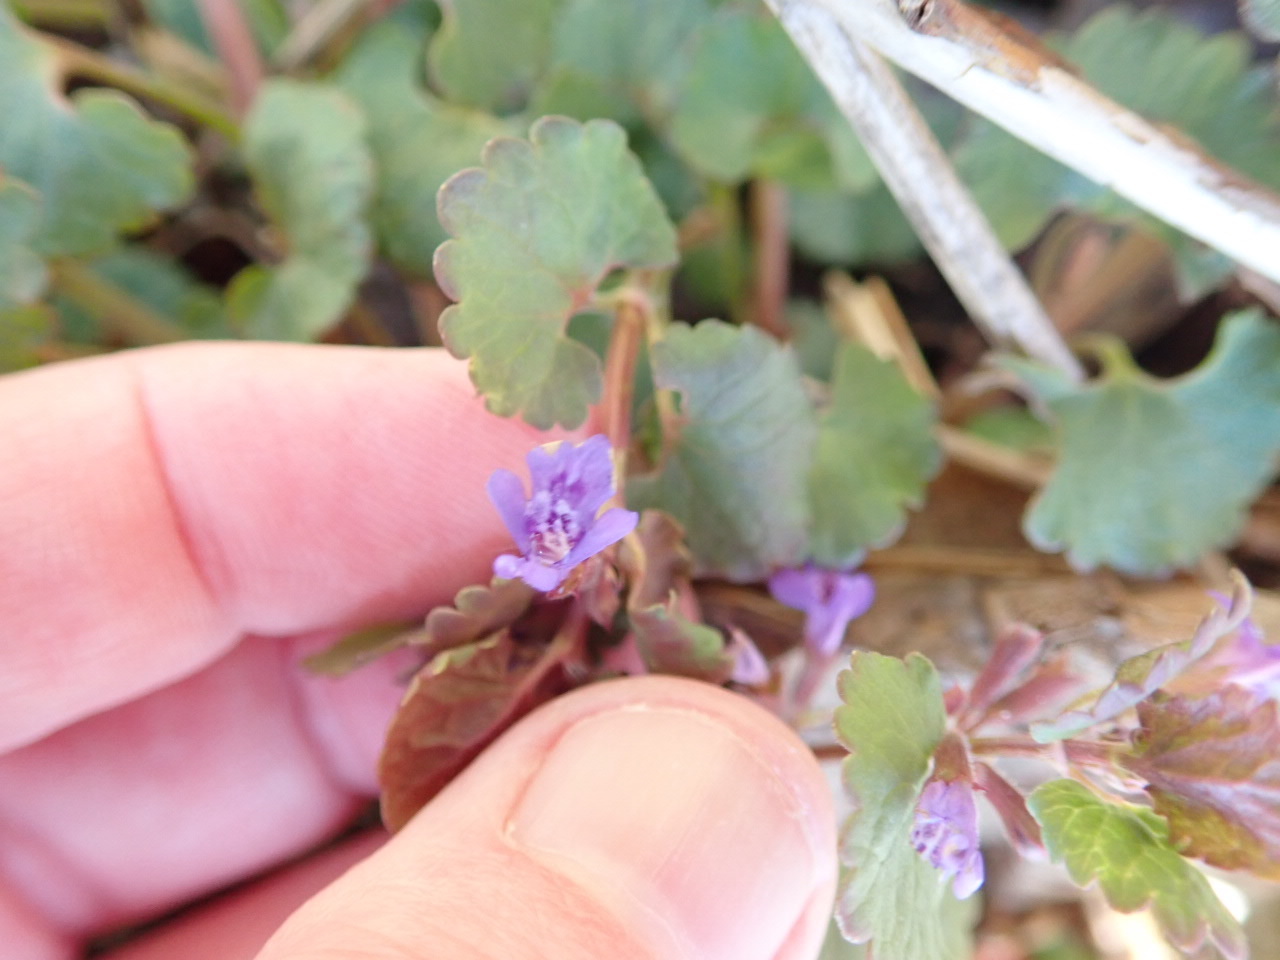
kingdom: Plantae
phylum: Tracheophyta
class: Magnoliopsida
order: Lamiales
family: Lamiaceae
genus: Glechoma
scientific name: Glechoma hederacea
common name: Ground ivy
